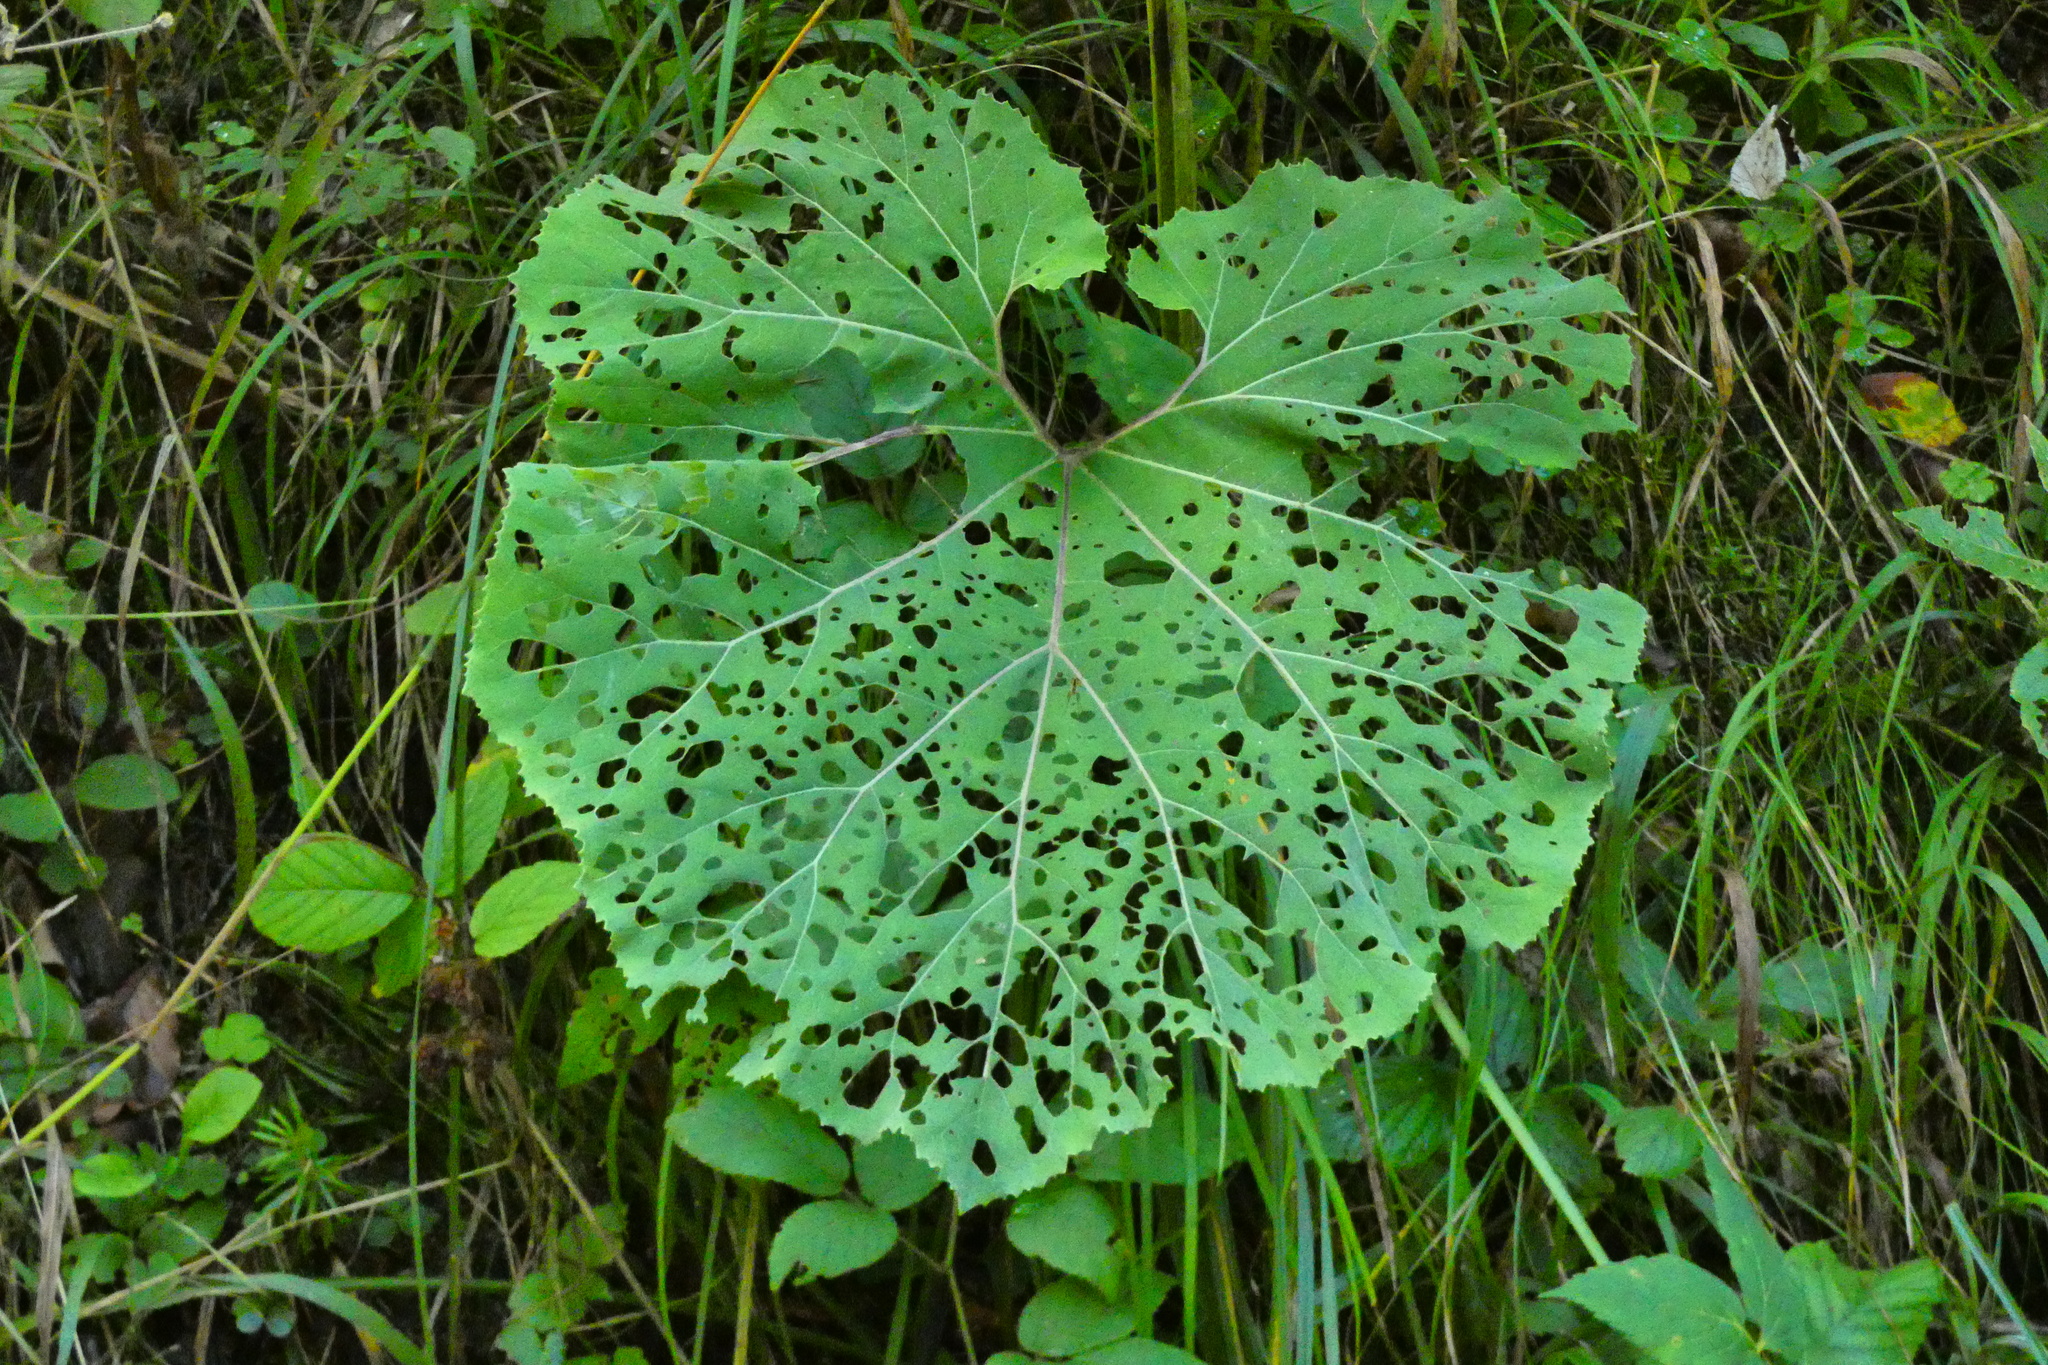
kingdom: Plantae
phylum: Tracheophyta
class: Magnoliopsida
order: Asterales
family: Asteraceae
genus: Petasites
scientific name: Petasites hybridus
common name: Butterbur
